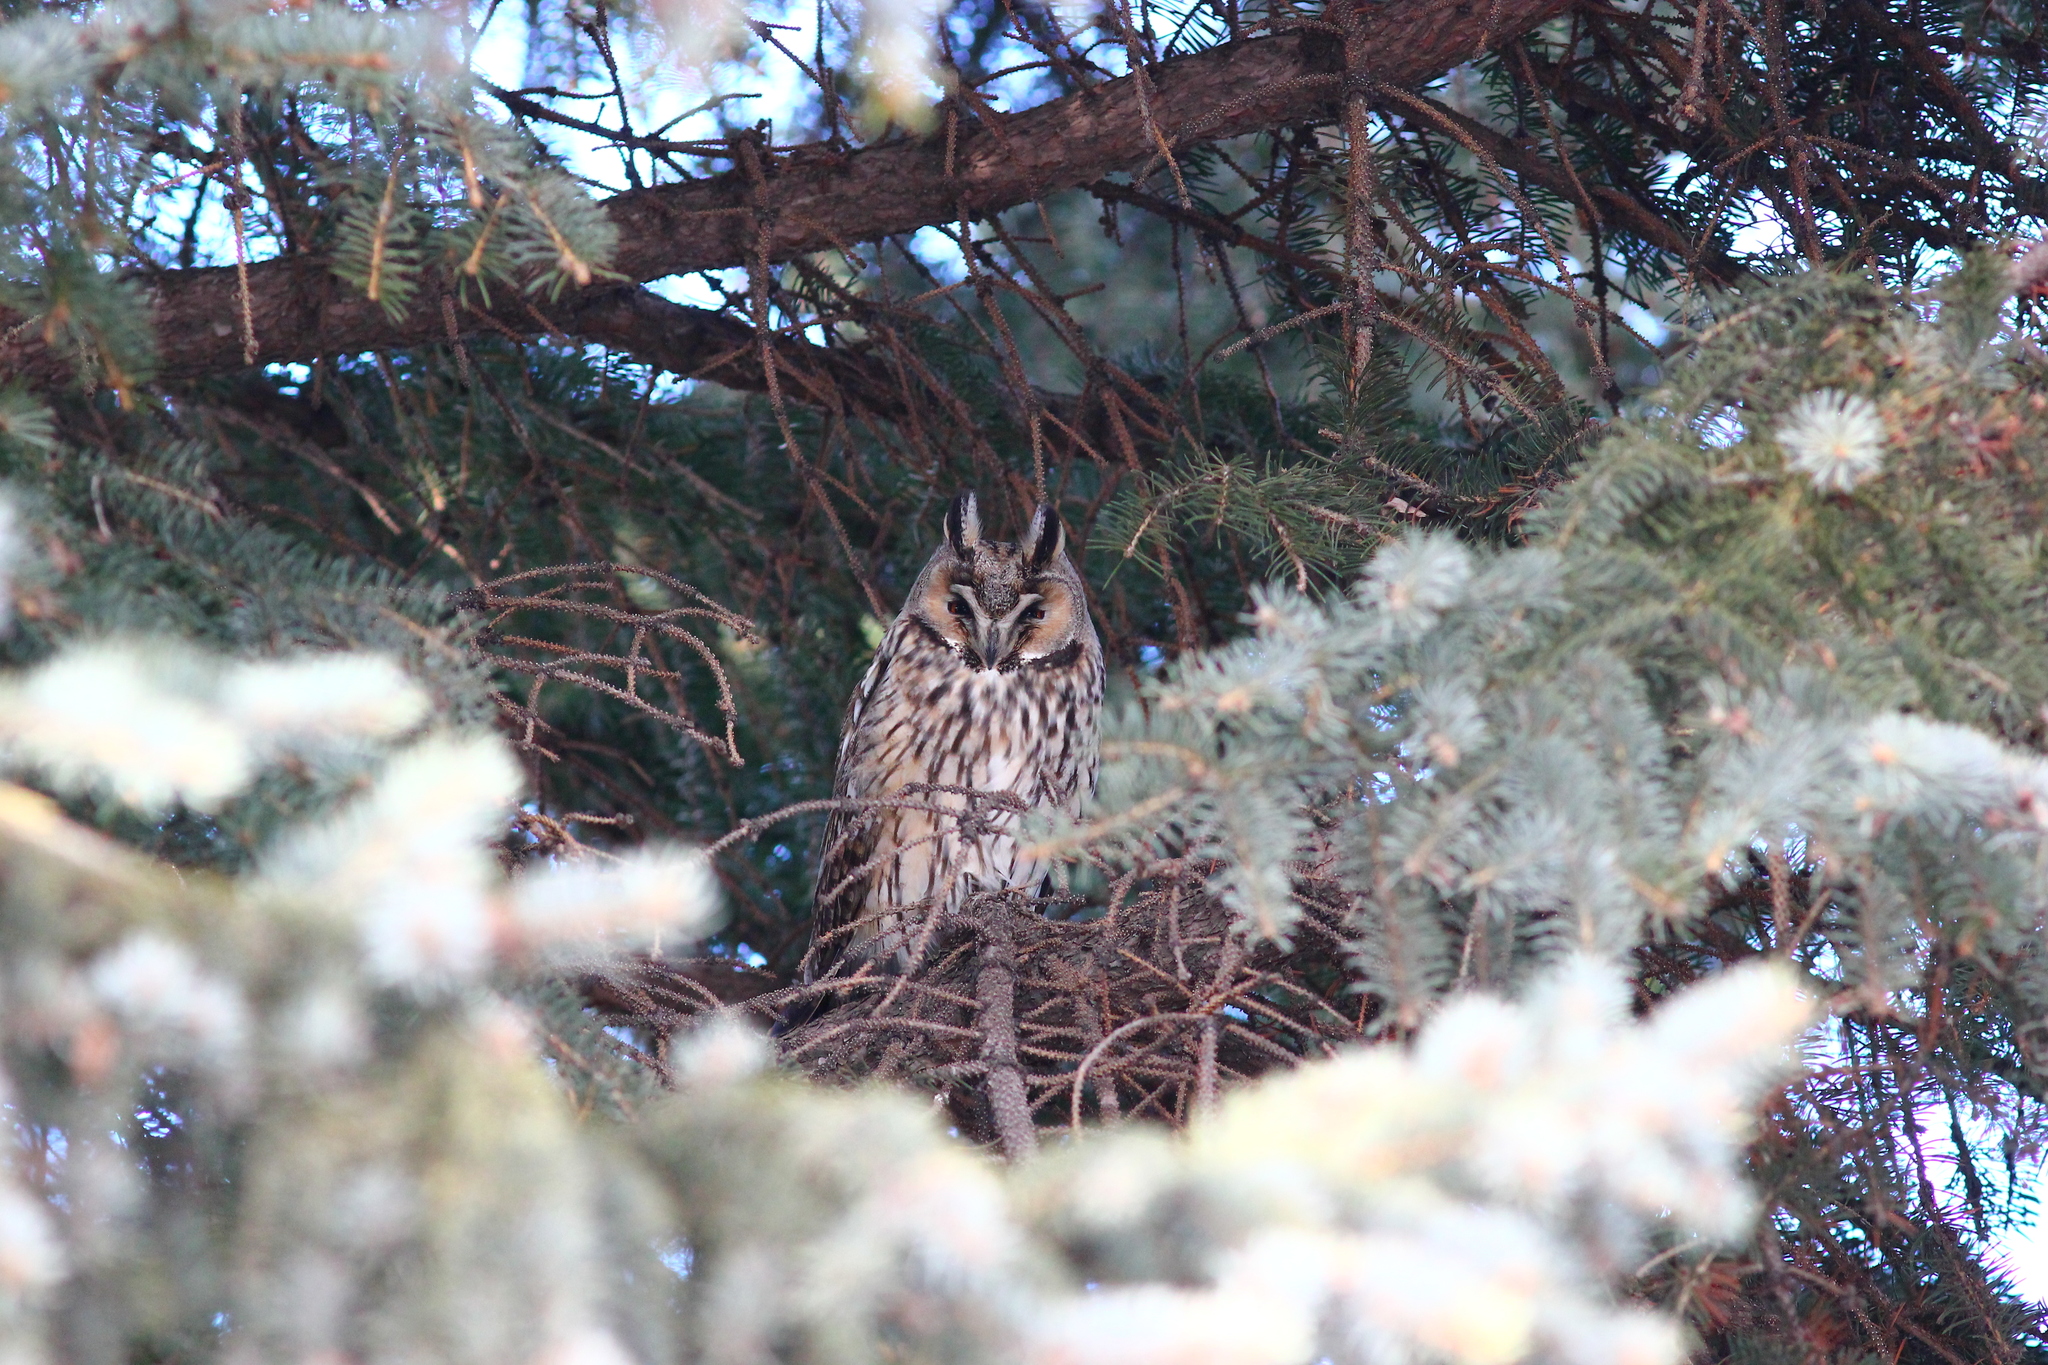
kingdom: Animalia
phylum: Chordata
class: Aves
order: Strigiformes
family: Strigidae
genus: Asio
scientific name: Asio otus
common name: Long-eared owl
